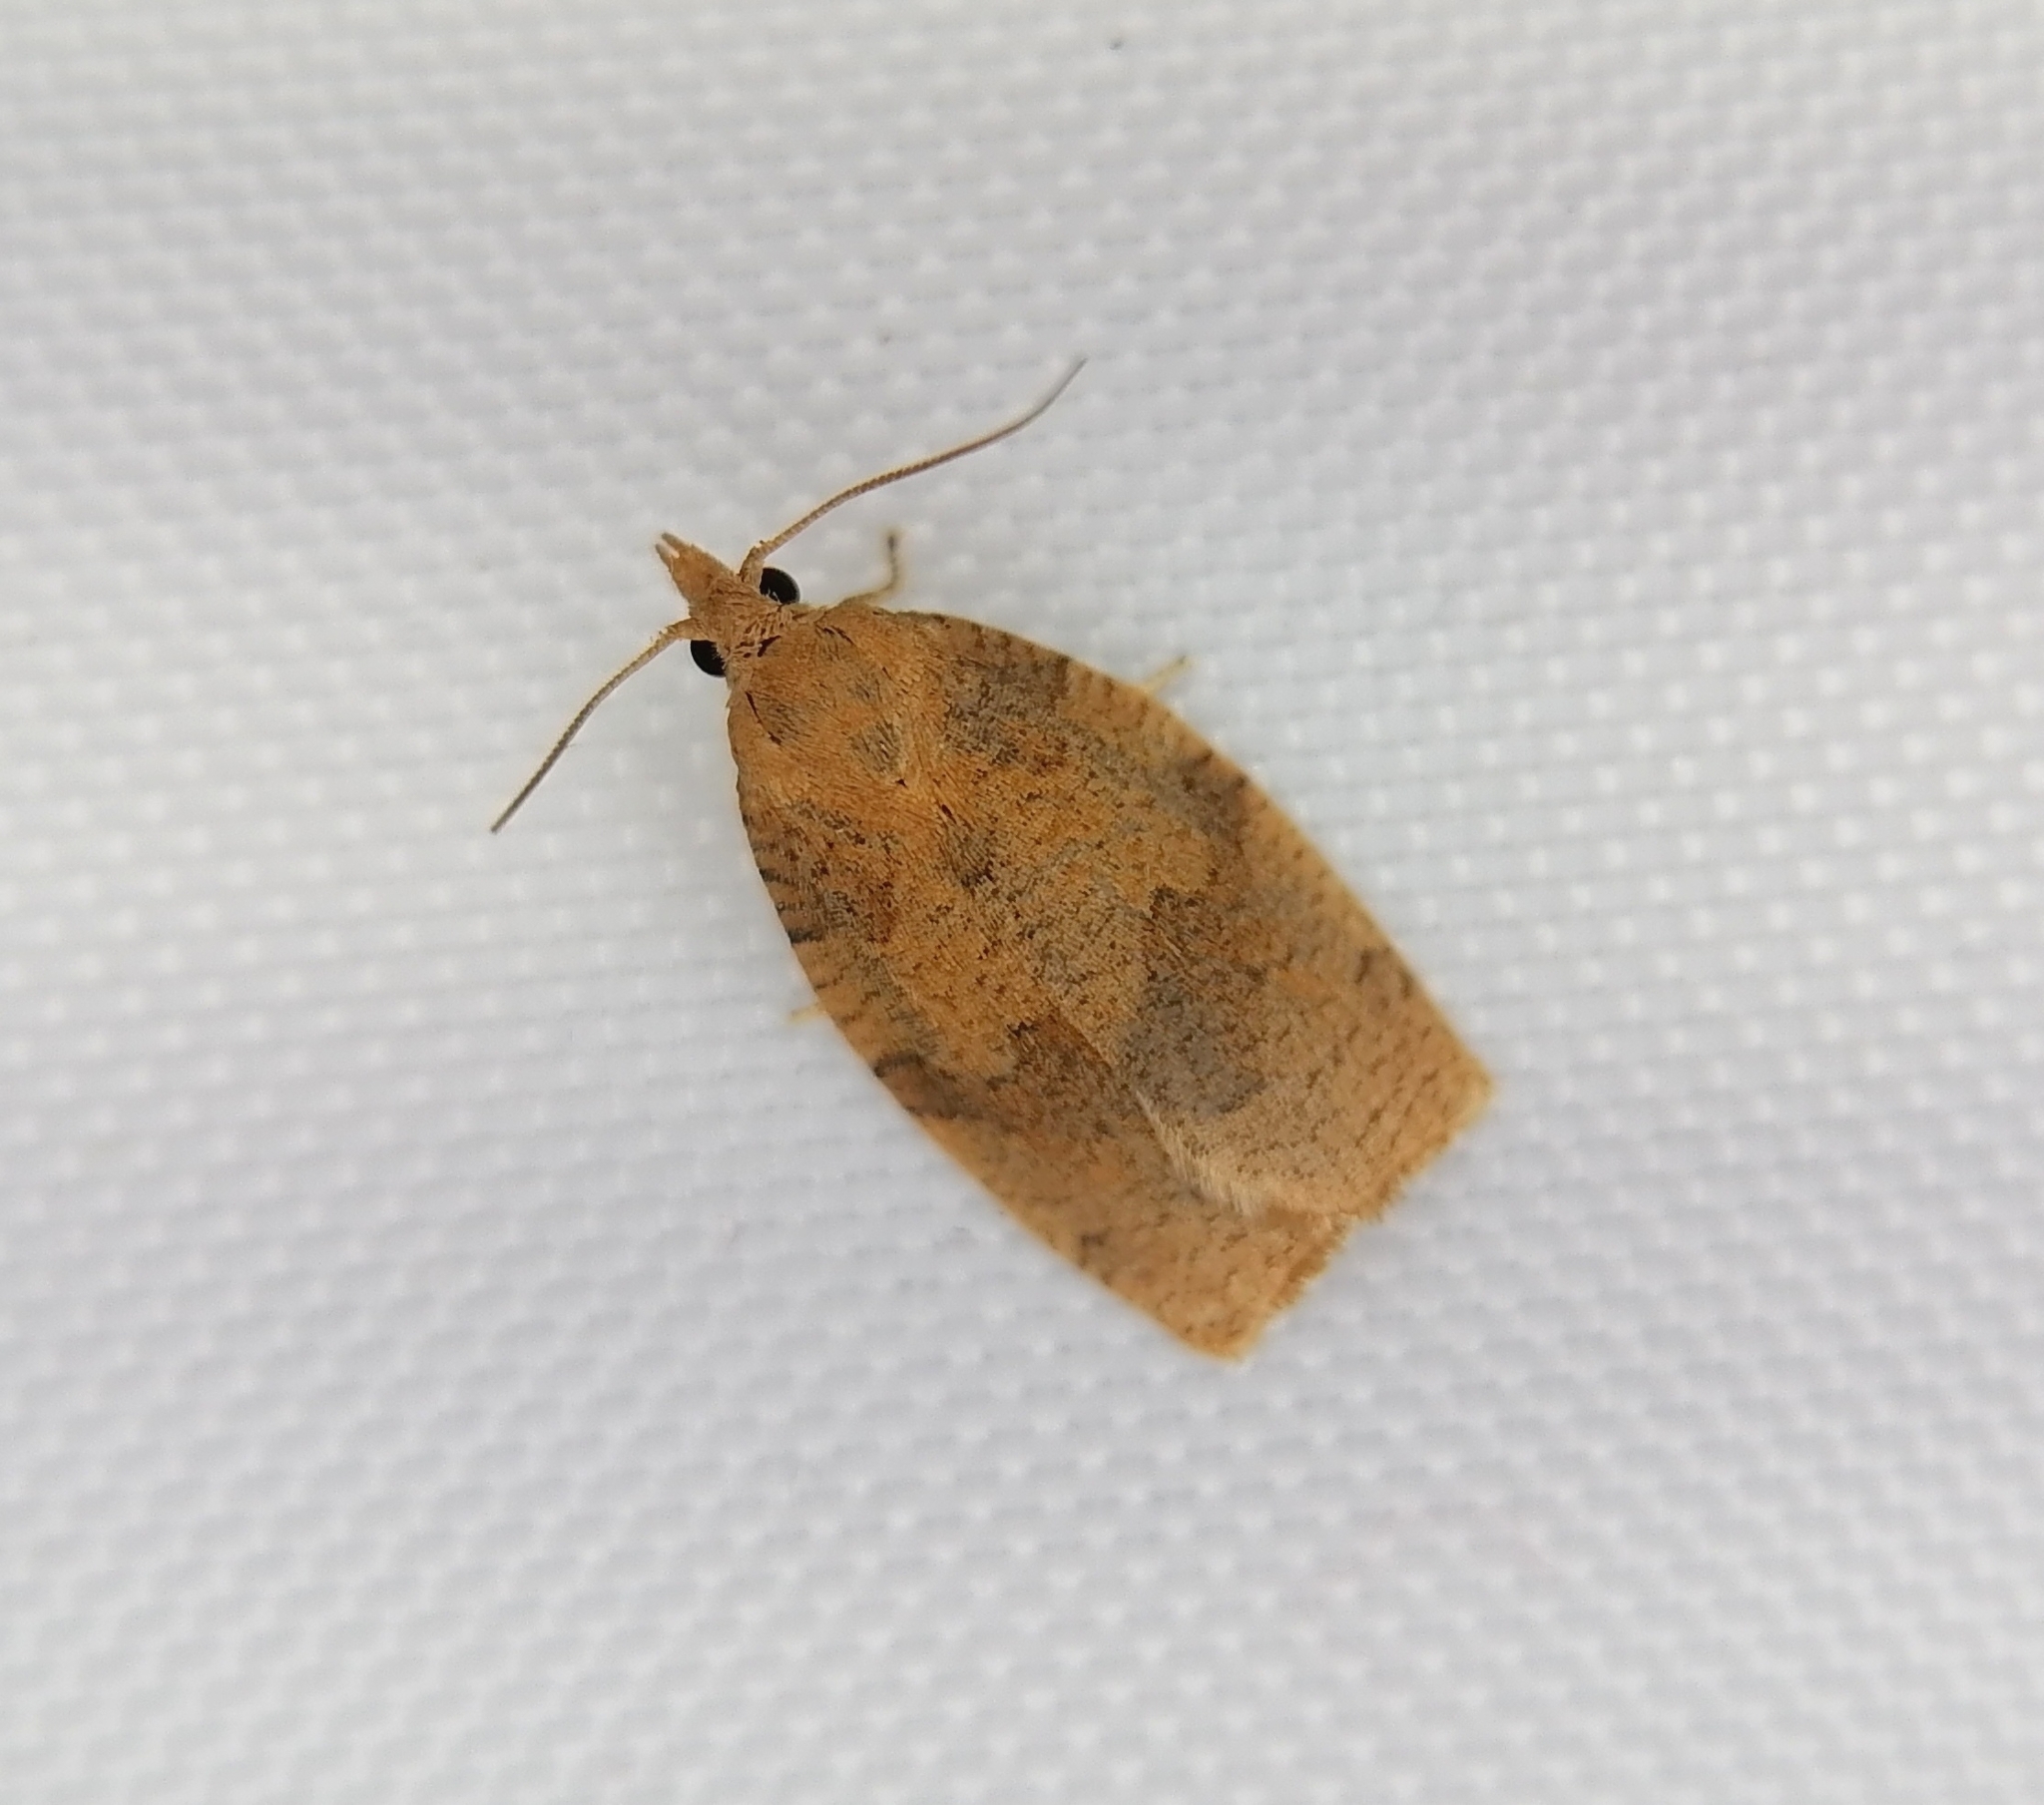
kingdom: Animalia
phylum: Arthropoda
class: Insecta
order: Lepidoptera
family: Tortricidae
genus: Pandemis
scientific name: Pandemis heparana
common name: Dark fruit-tree tortrix
